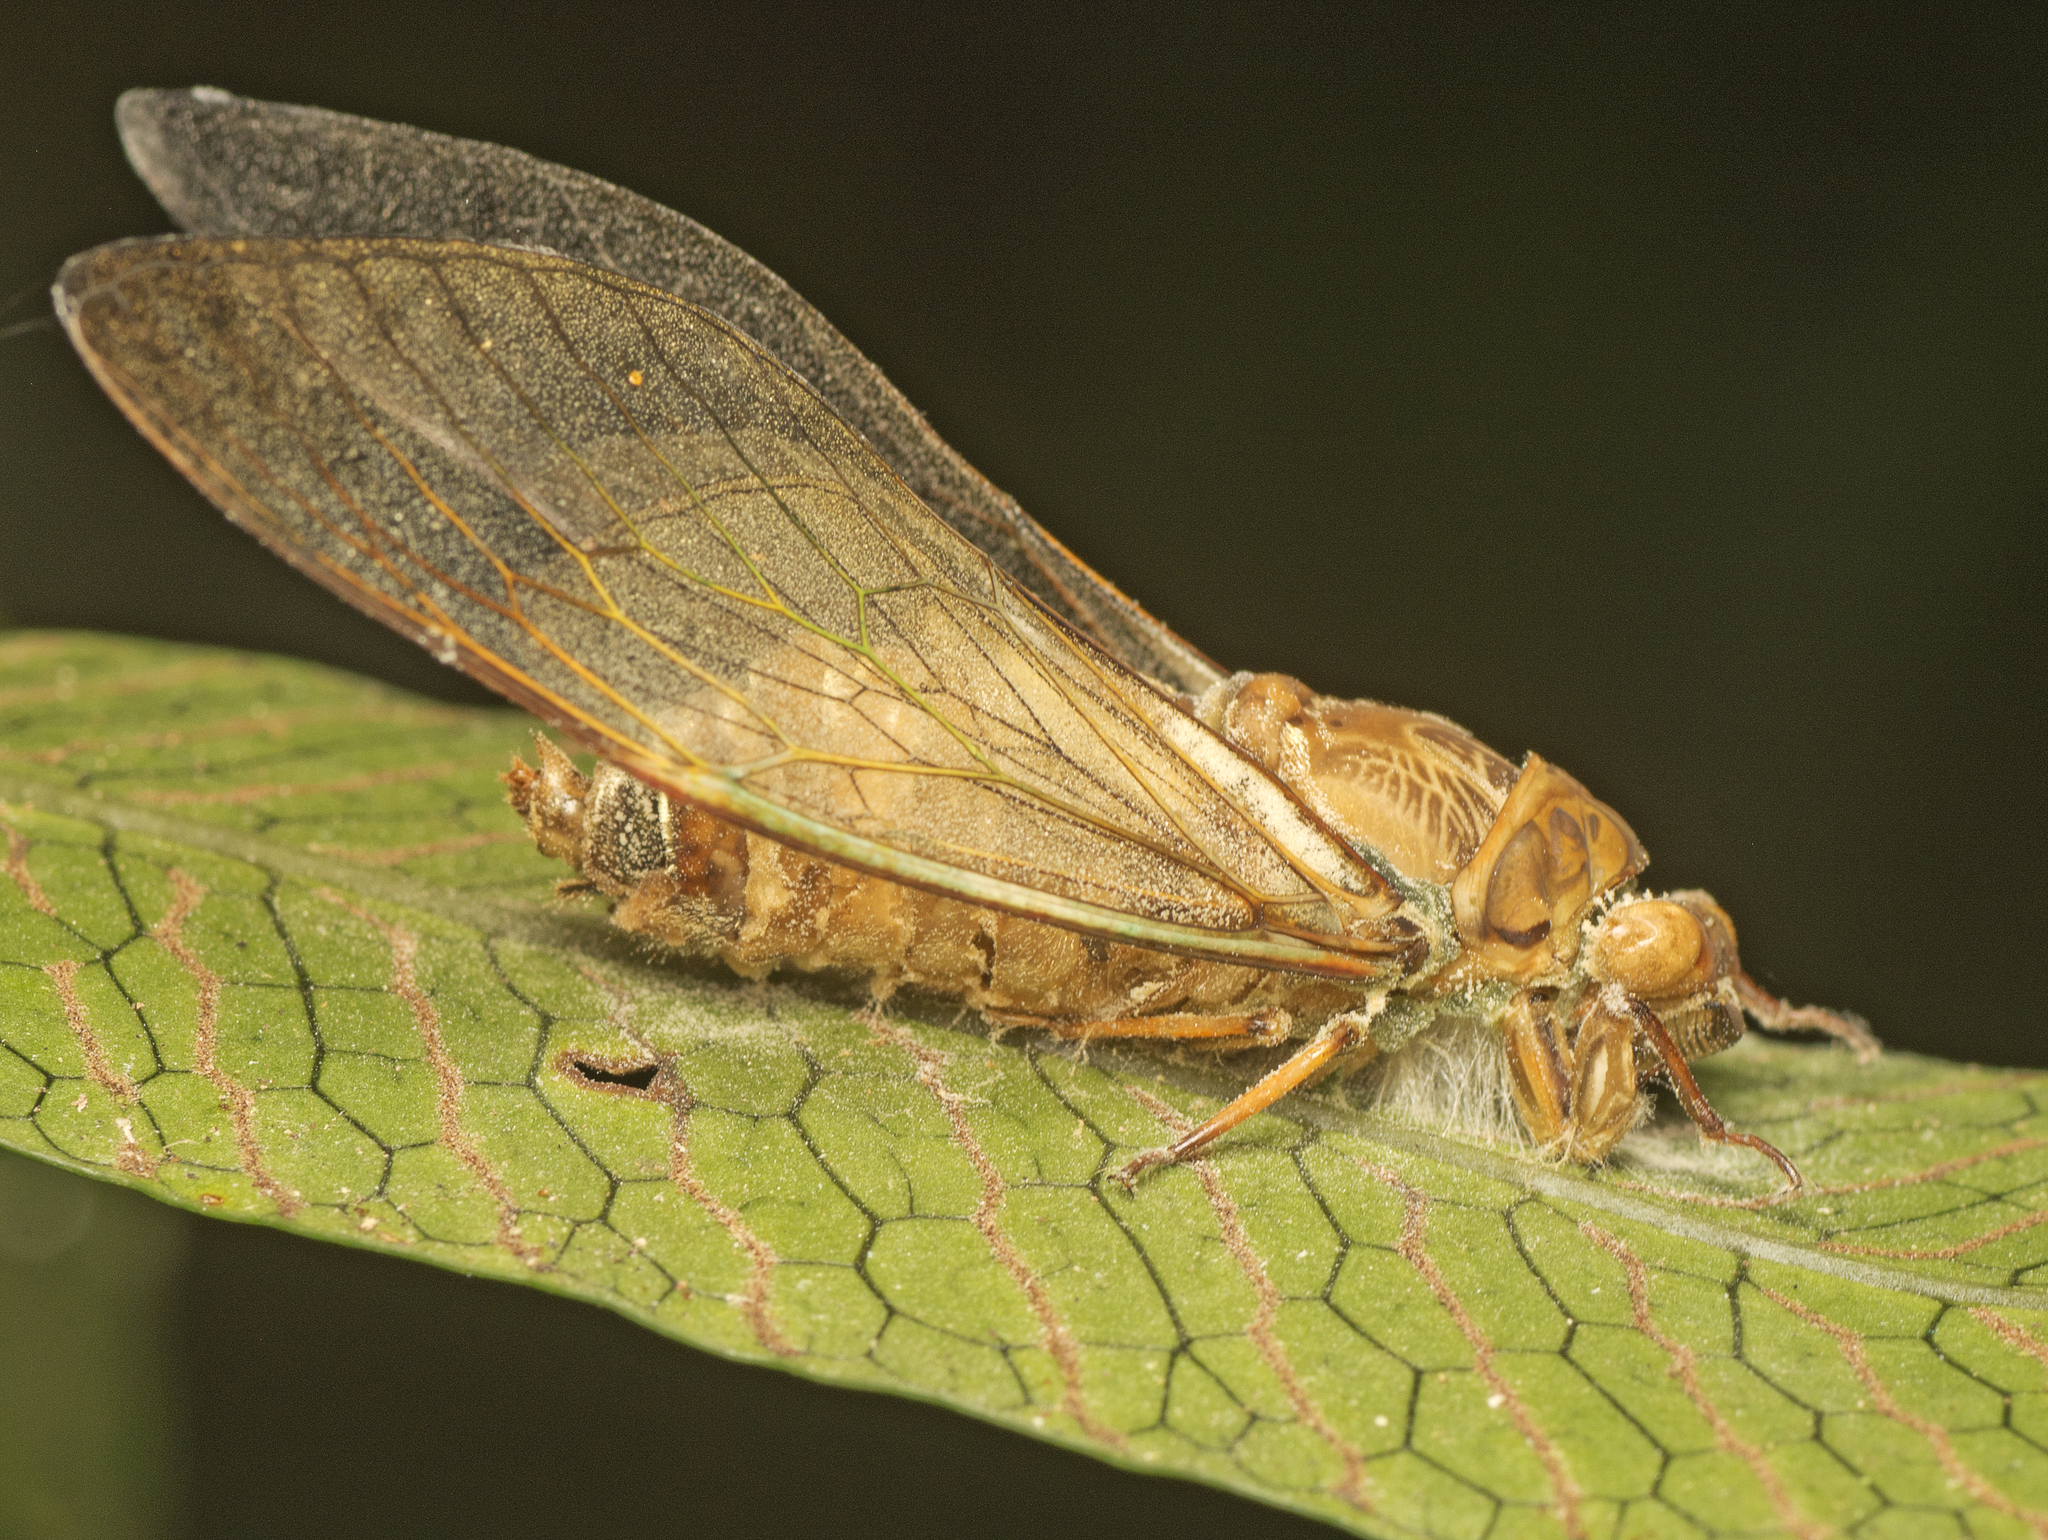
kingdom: Animalia
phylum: Arthropoda
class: Insecta
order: Hemiptera
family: Cicadidae
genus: Venustria
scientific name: Venustria superba
